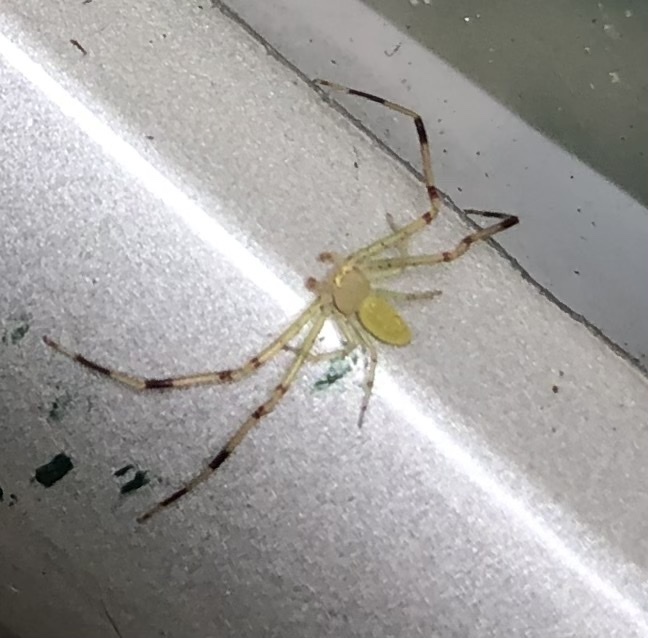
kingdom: Animalia
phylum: Arthropoda
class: Arachnida
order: Araneae
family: Thomisidae
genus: Misumessus
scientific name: Misumessus oblongus
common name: American green crab spider
